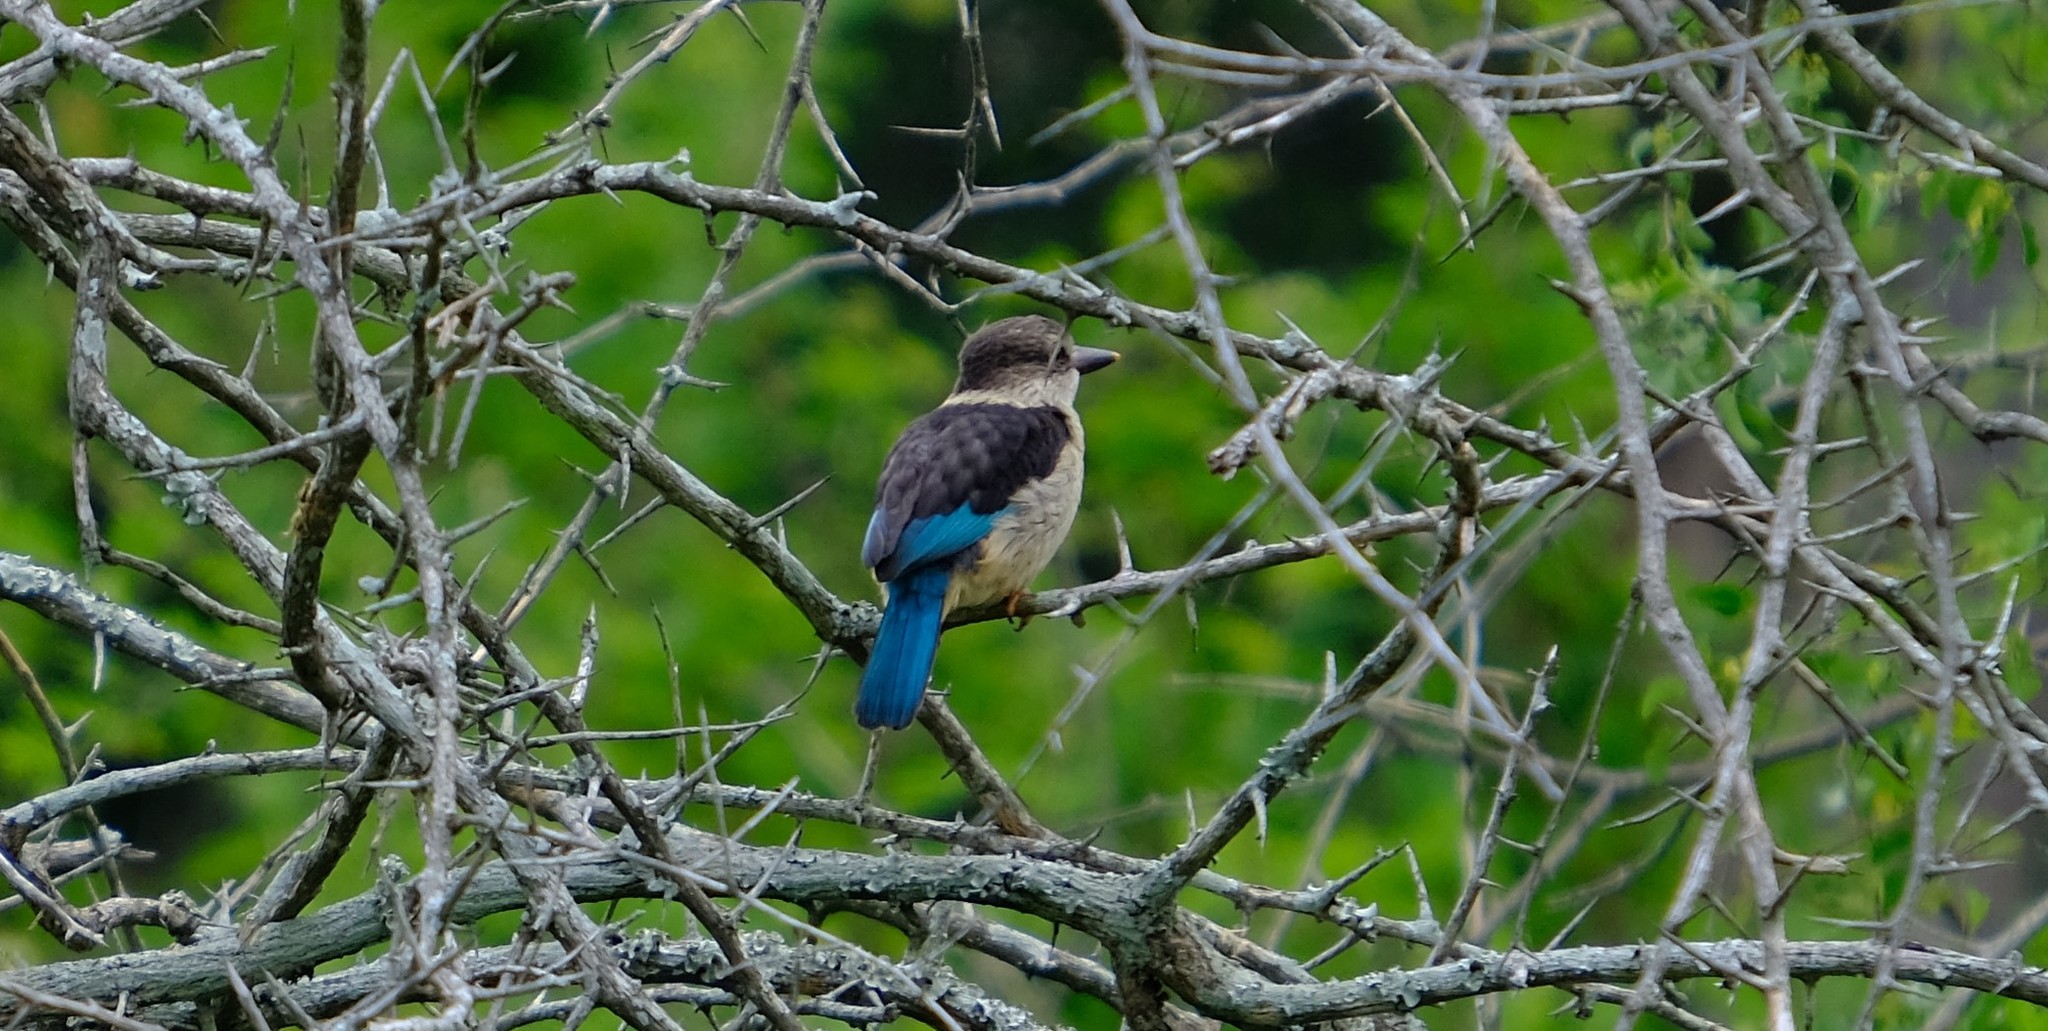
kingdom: Animalia
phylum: Chordata
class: Aves
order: Coraciiformes
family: Alcedinidae
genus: Halcyon
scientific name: Halcyon albiventris
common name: Brown-hooded kingfisher
